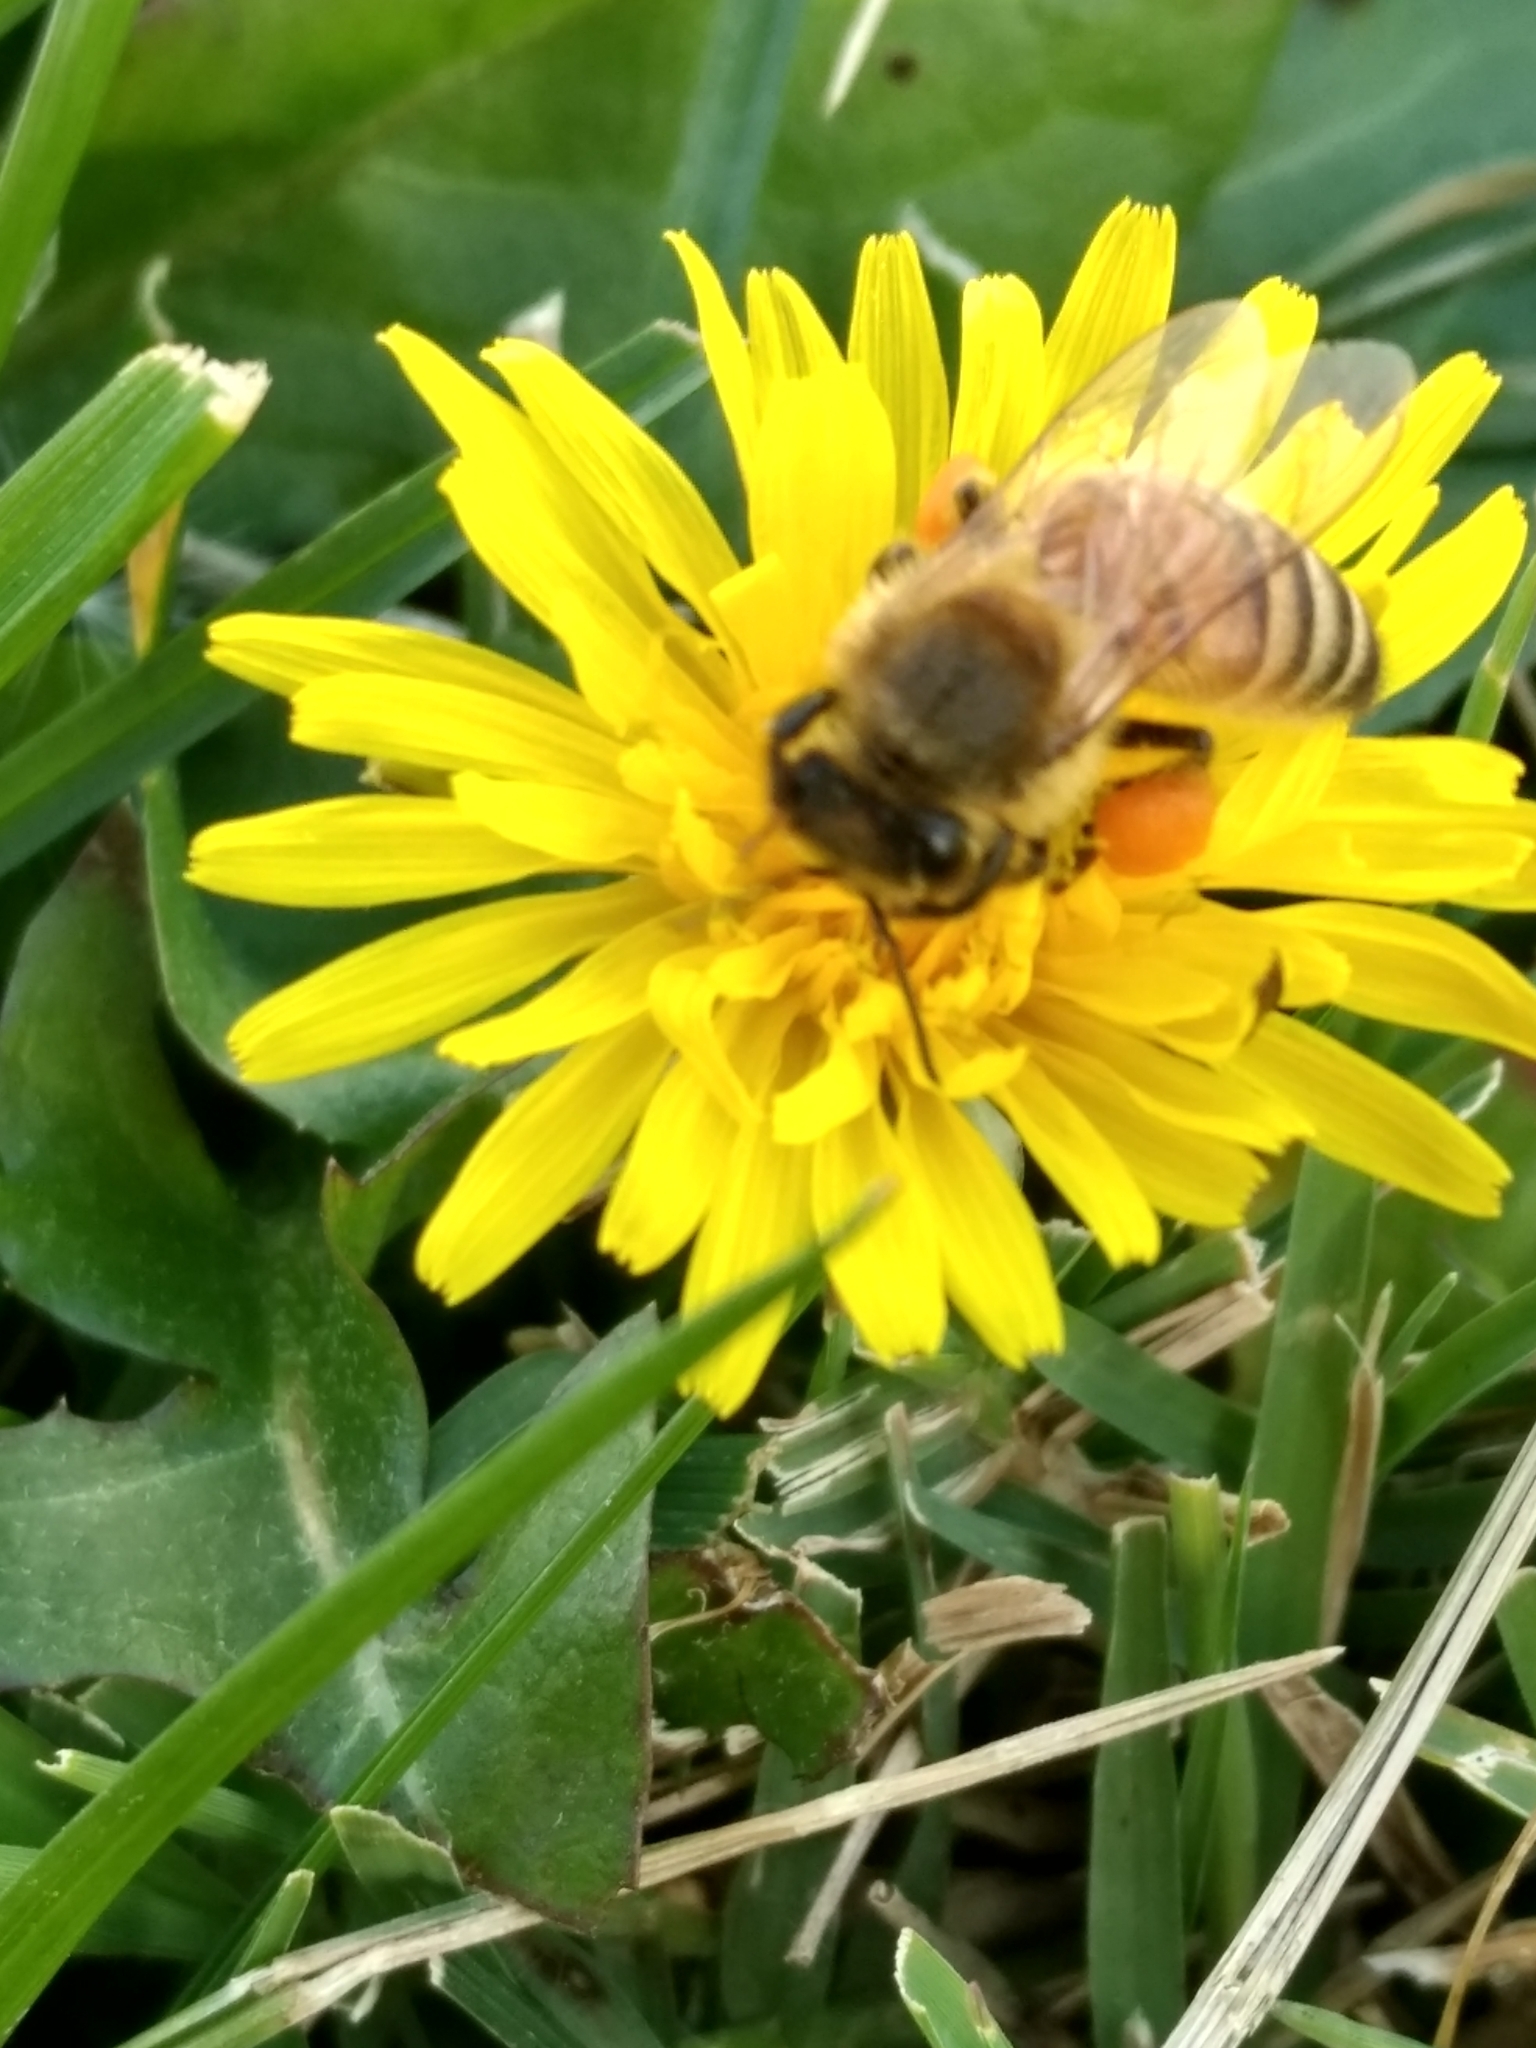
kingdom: Animalia
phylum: Arthropoda
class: Insecta
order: Hymenoptera
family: Apidae
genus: Apis
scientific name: Apis mellifera
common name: Honey bee
